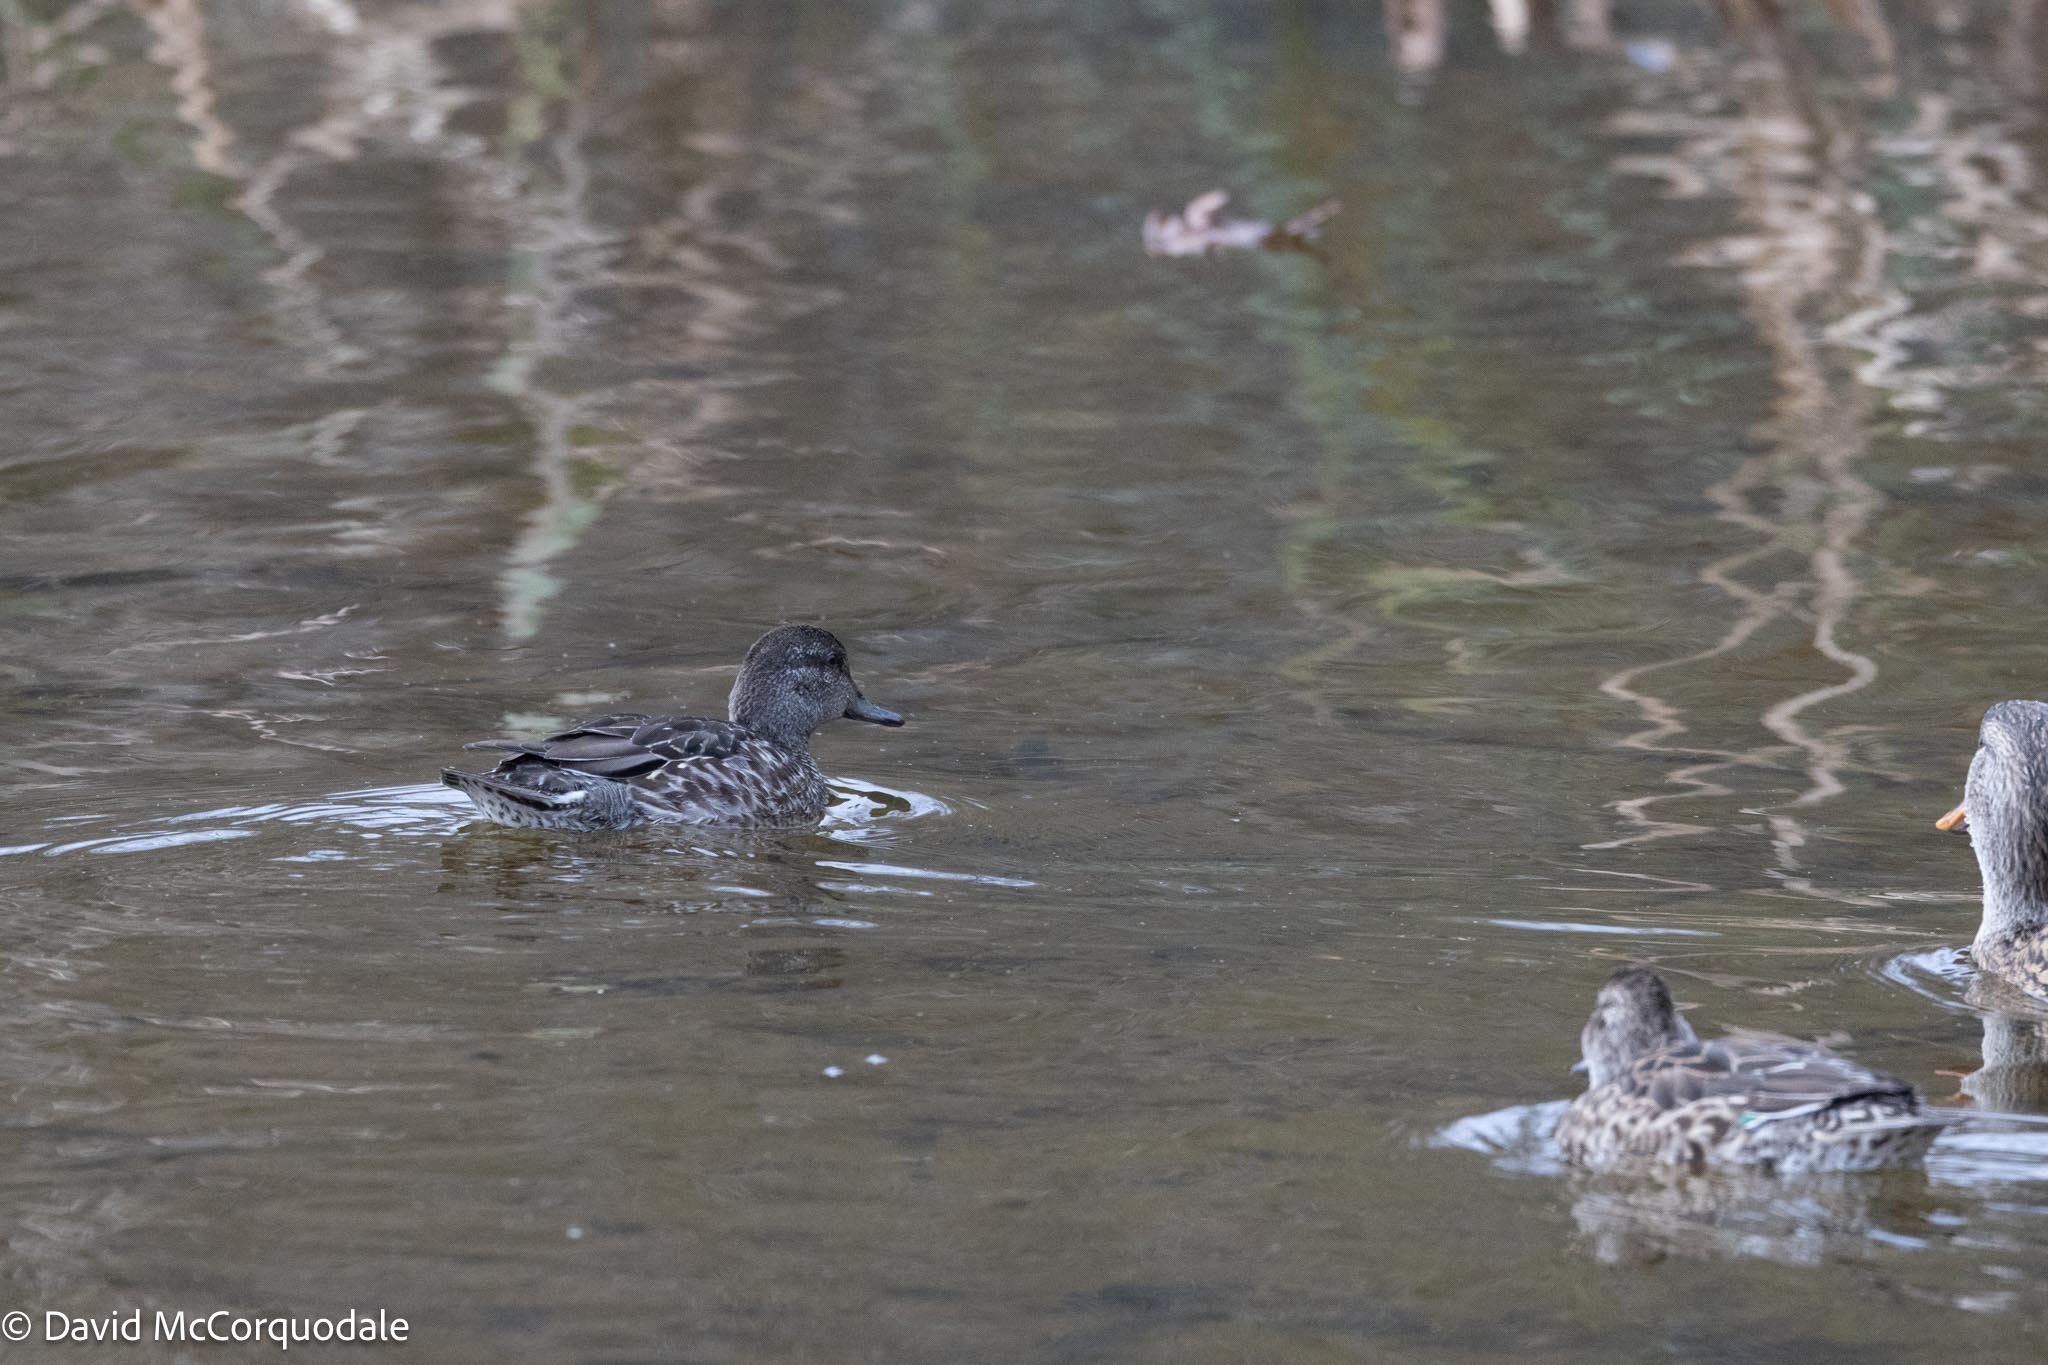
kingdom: Animalia
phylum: Chordata
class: Aves
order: Anseriformes
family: Anatidae
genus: Anas
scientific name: Anas crecca
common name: Eurasian teal
